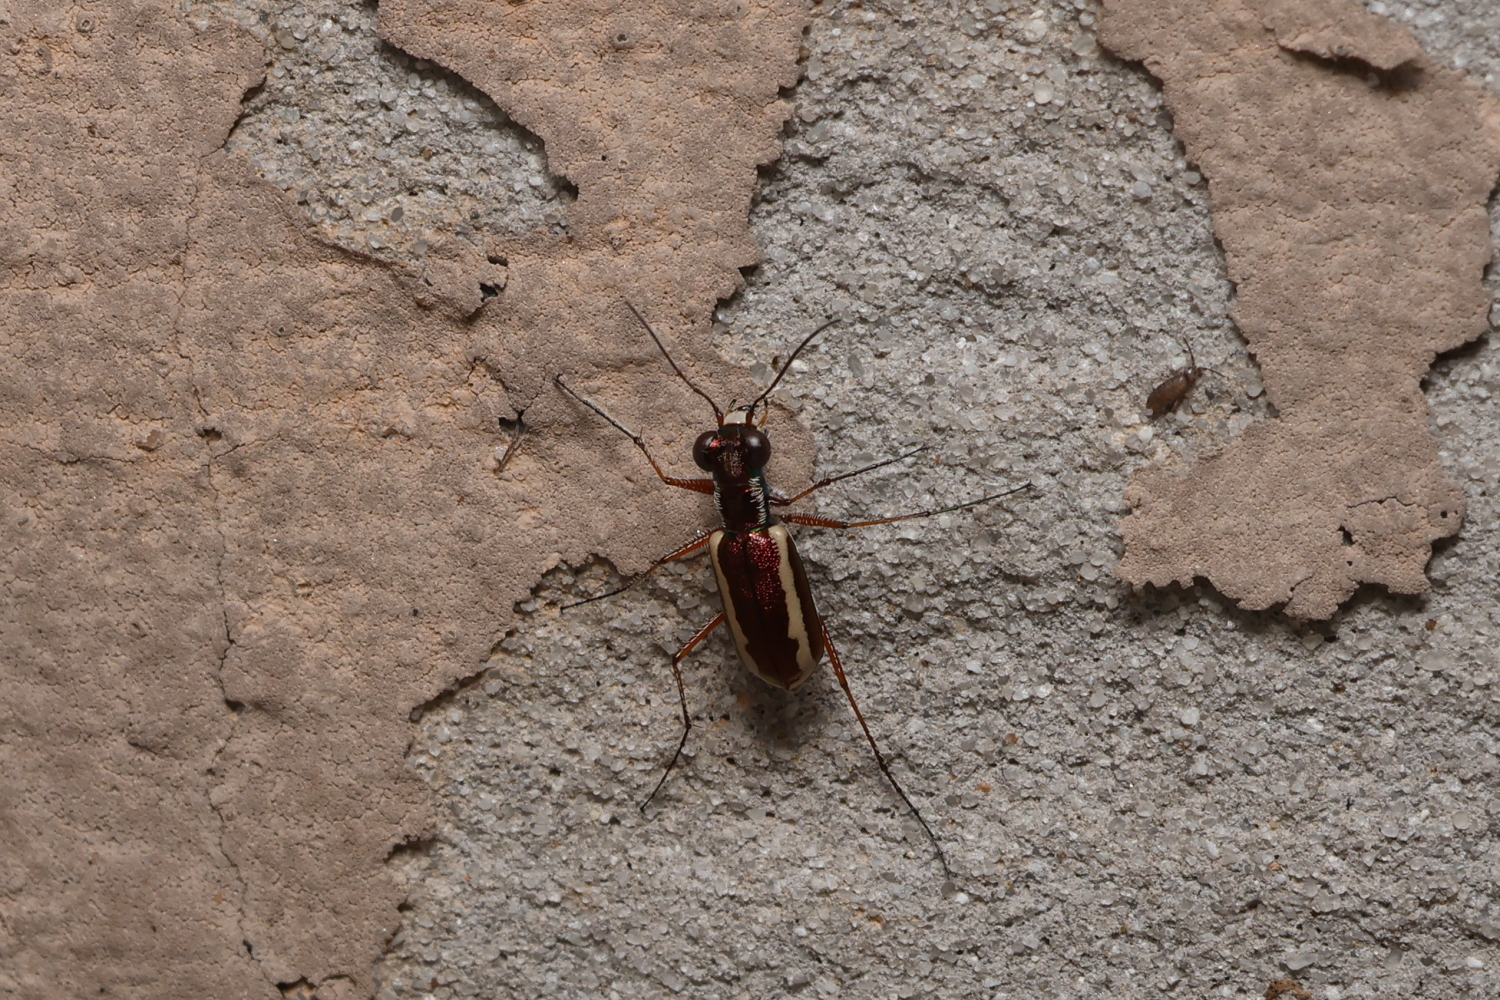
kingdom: Animalia
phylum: Arthropoda
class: Insecta
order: Coleoptera
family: Carabidae
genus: Cylindera
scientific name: Cylindera lemniscata
